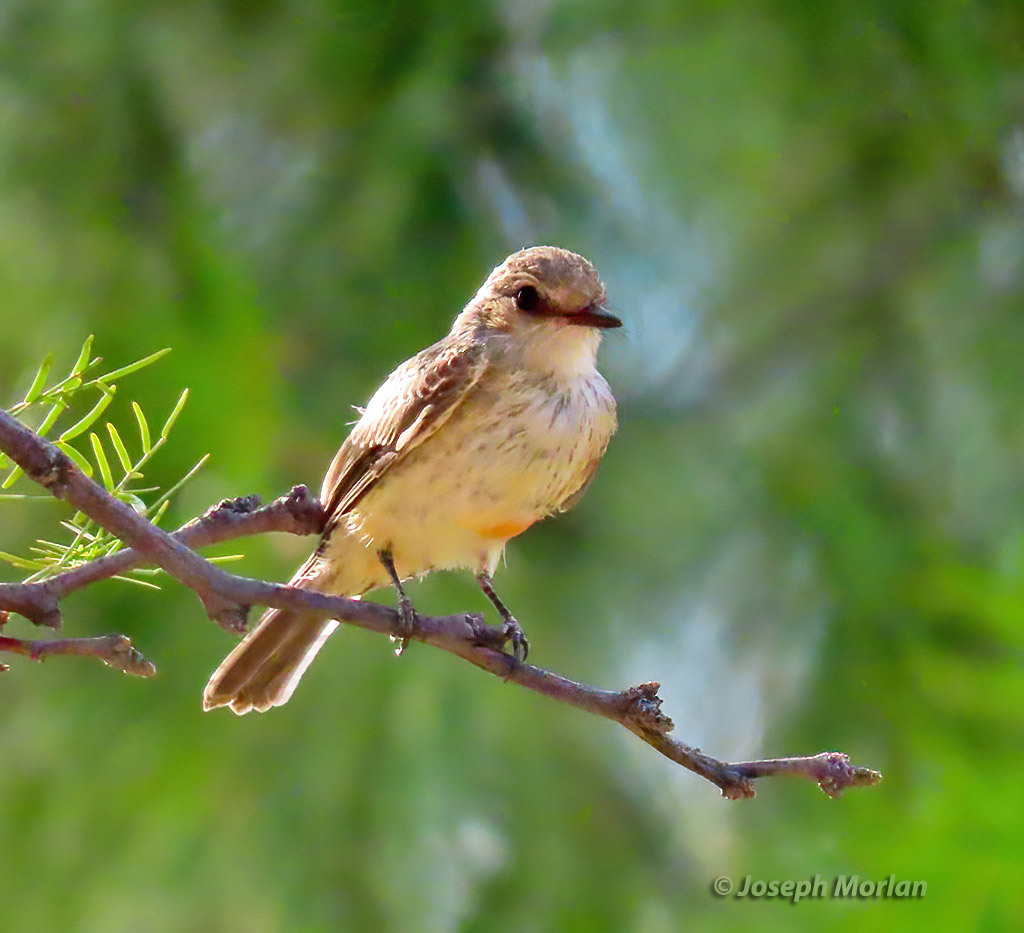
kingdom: Animalia
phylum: Chordata
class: Aves
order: Passeriformes
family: Tyrannidae
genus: Pyrocephalus
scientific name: Pyrocephalus rubinus
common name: Vermilion flycatcher
